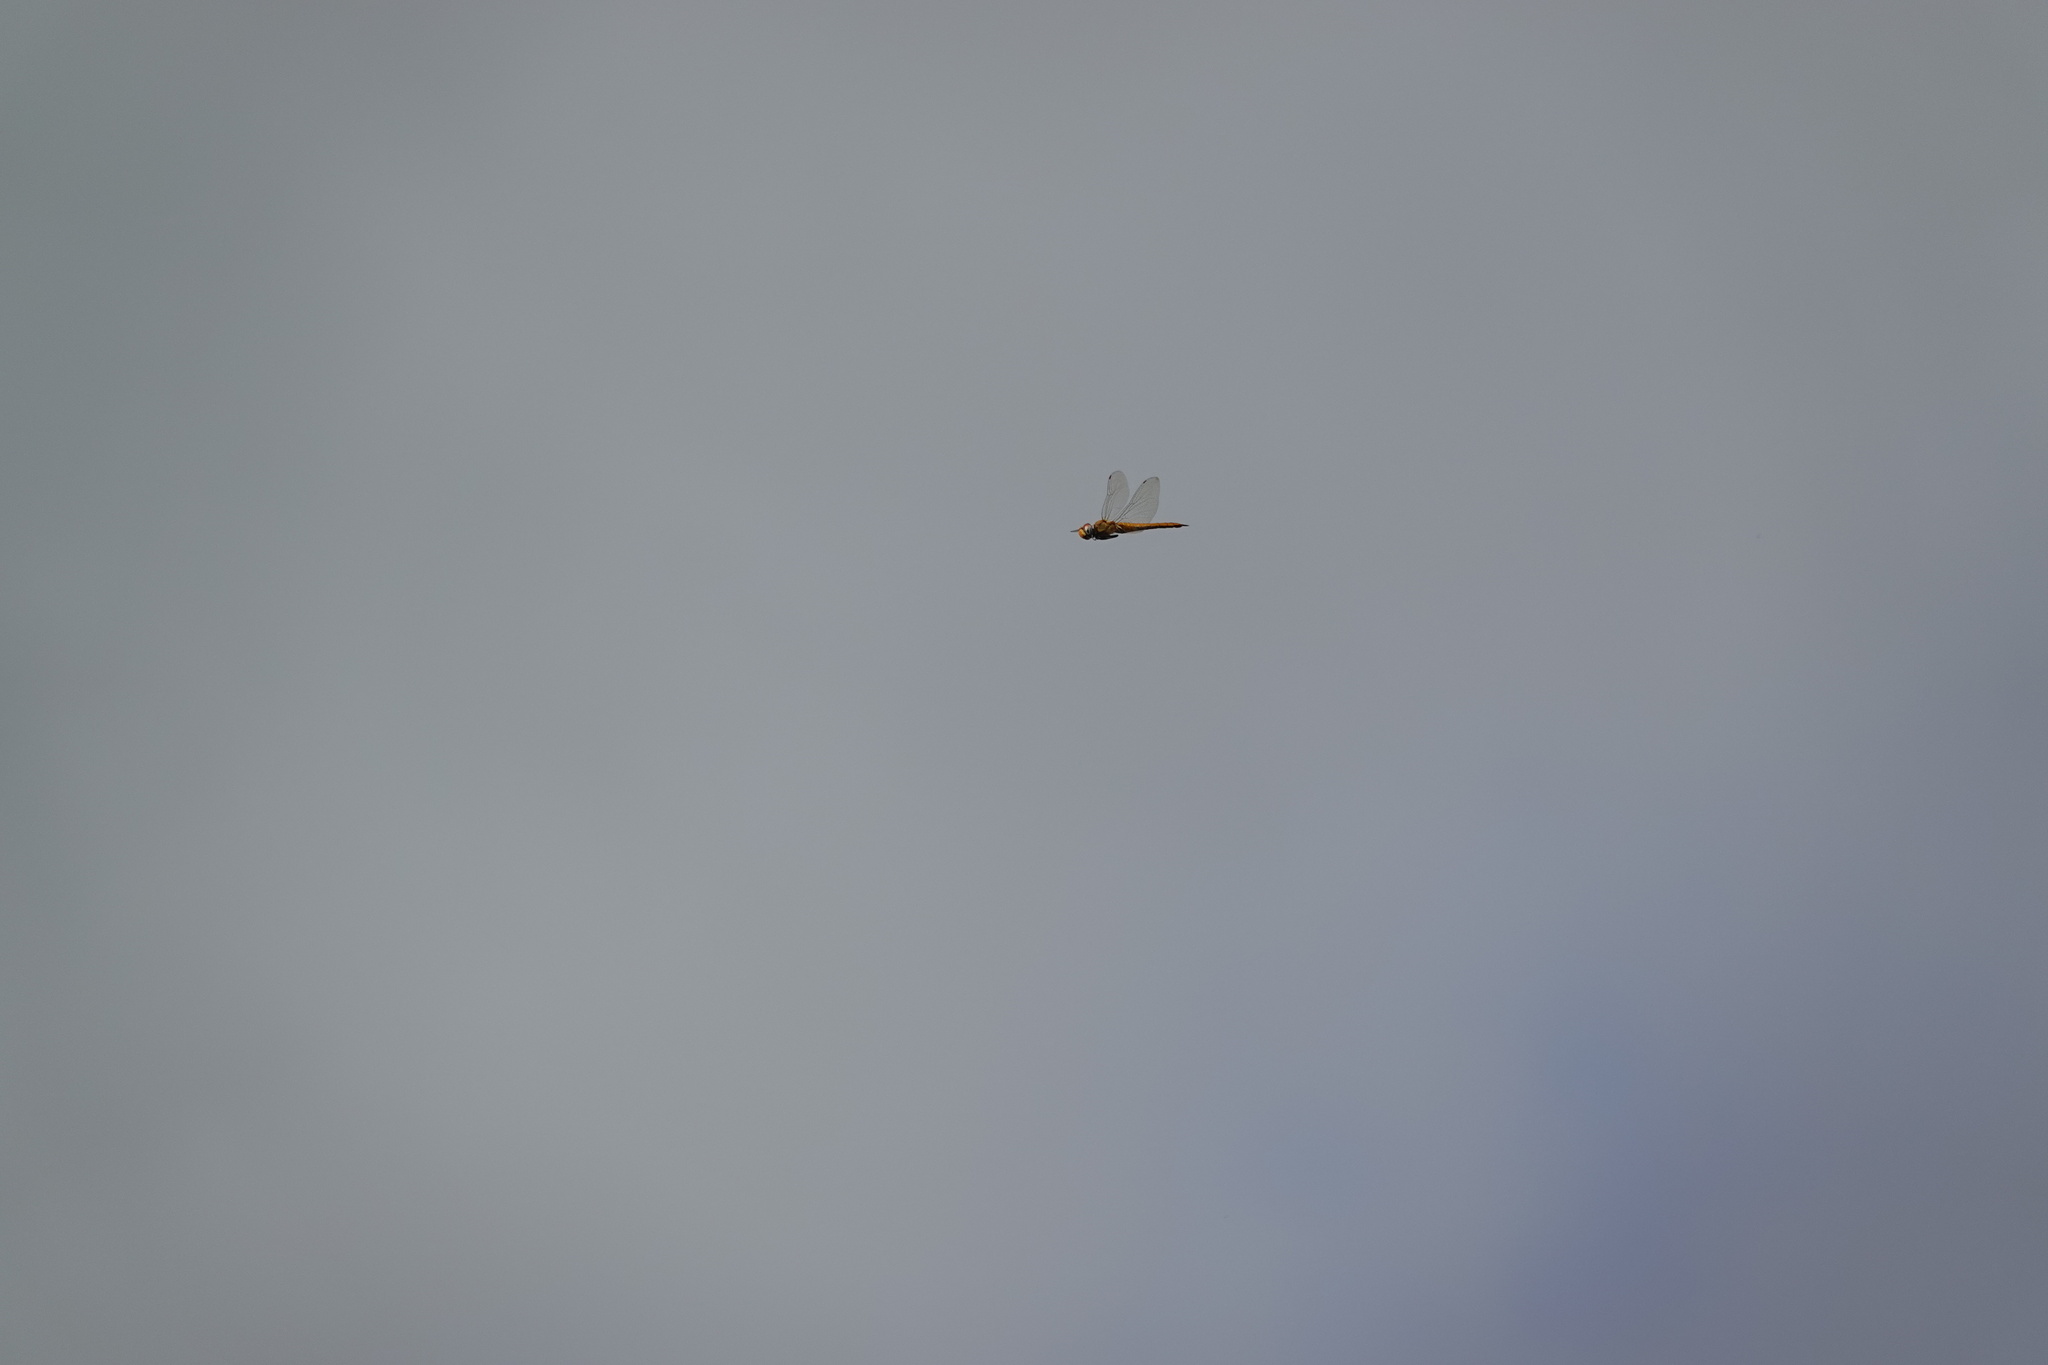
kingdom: Animalia
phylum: Arthropoda
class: Insecta
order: Odonata
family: Libellulidae
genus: Pantala
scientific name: Pantala flavescens
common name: Wandering glider
